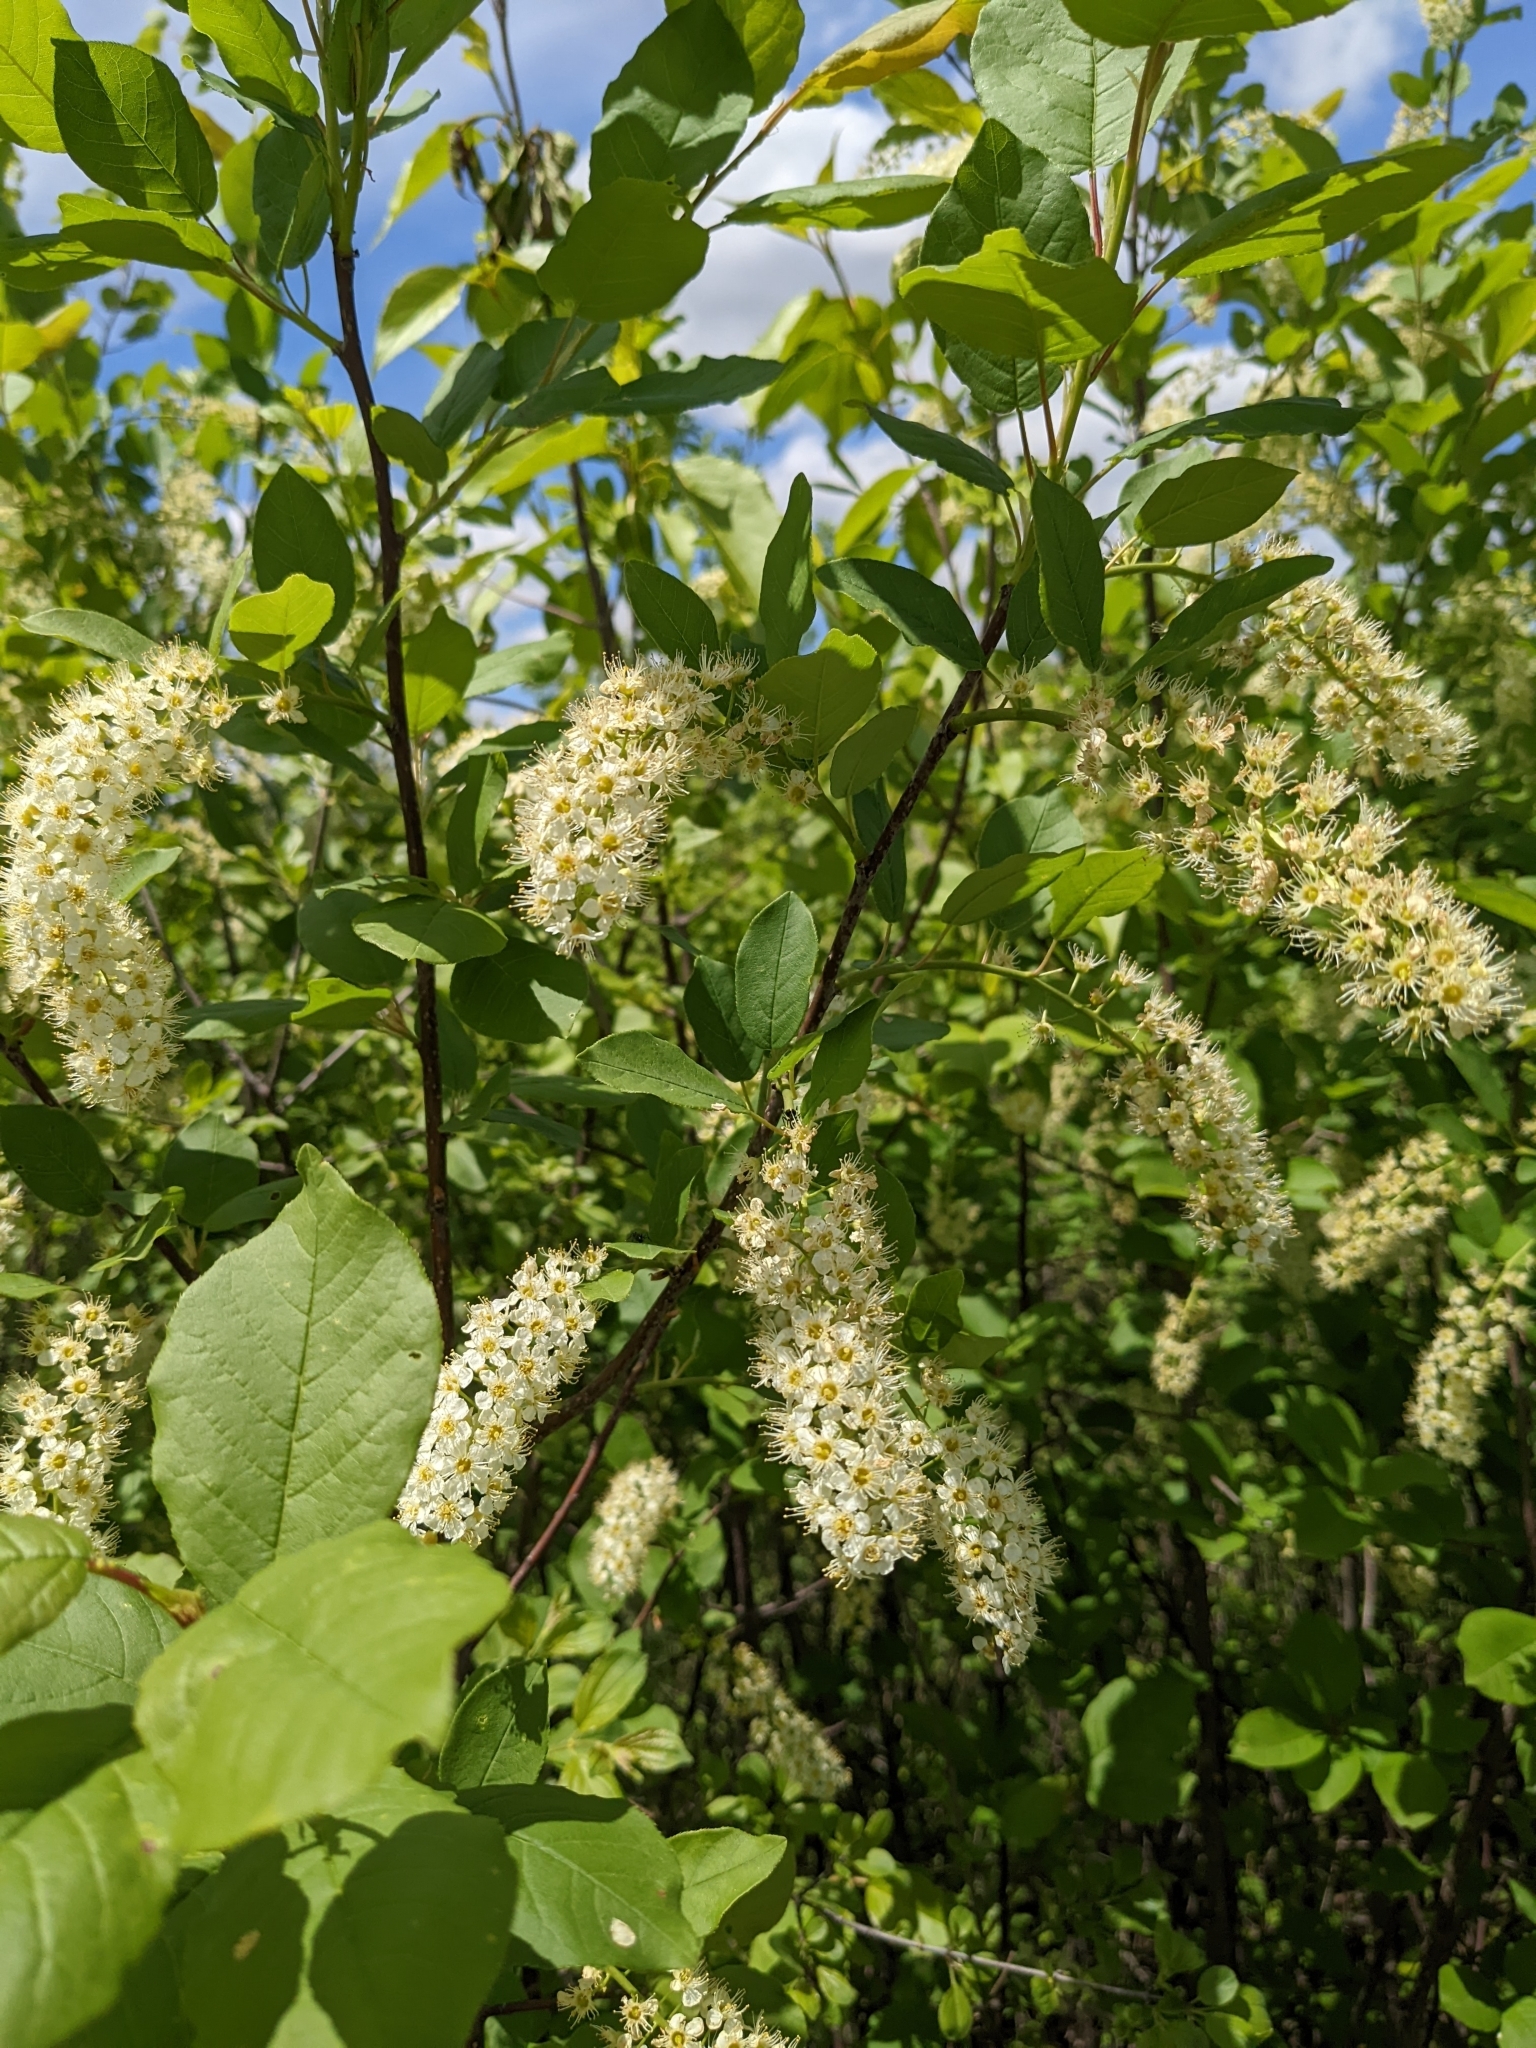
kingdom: Plantae
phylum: Tracheophyta
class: Magnoliopsida
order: Rosales
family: Rosaceae
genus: Prunus
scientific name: Prunus virginiana
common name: Chokecherry
